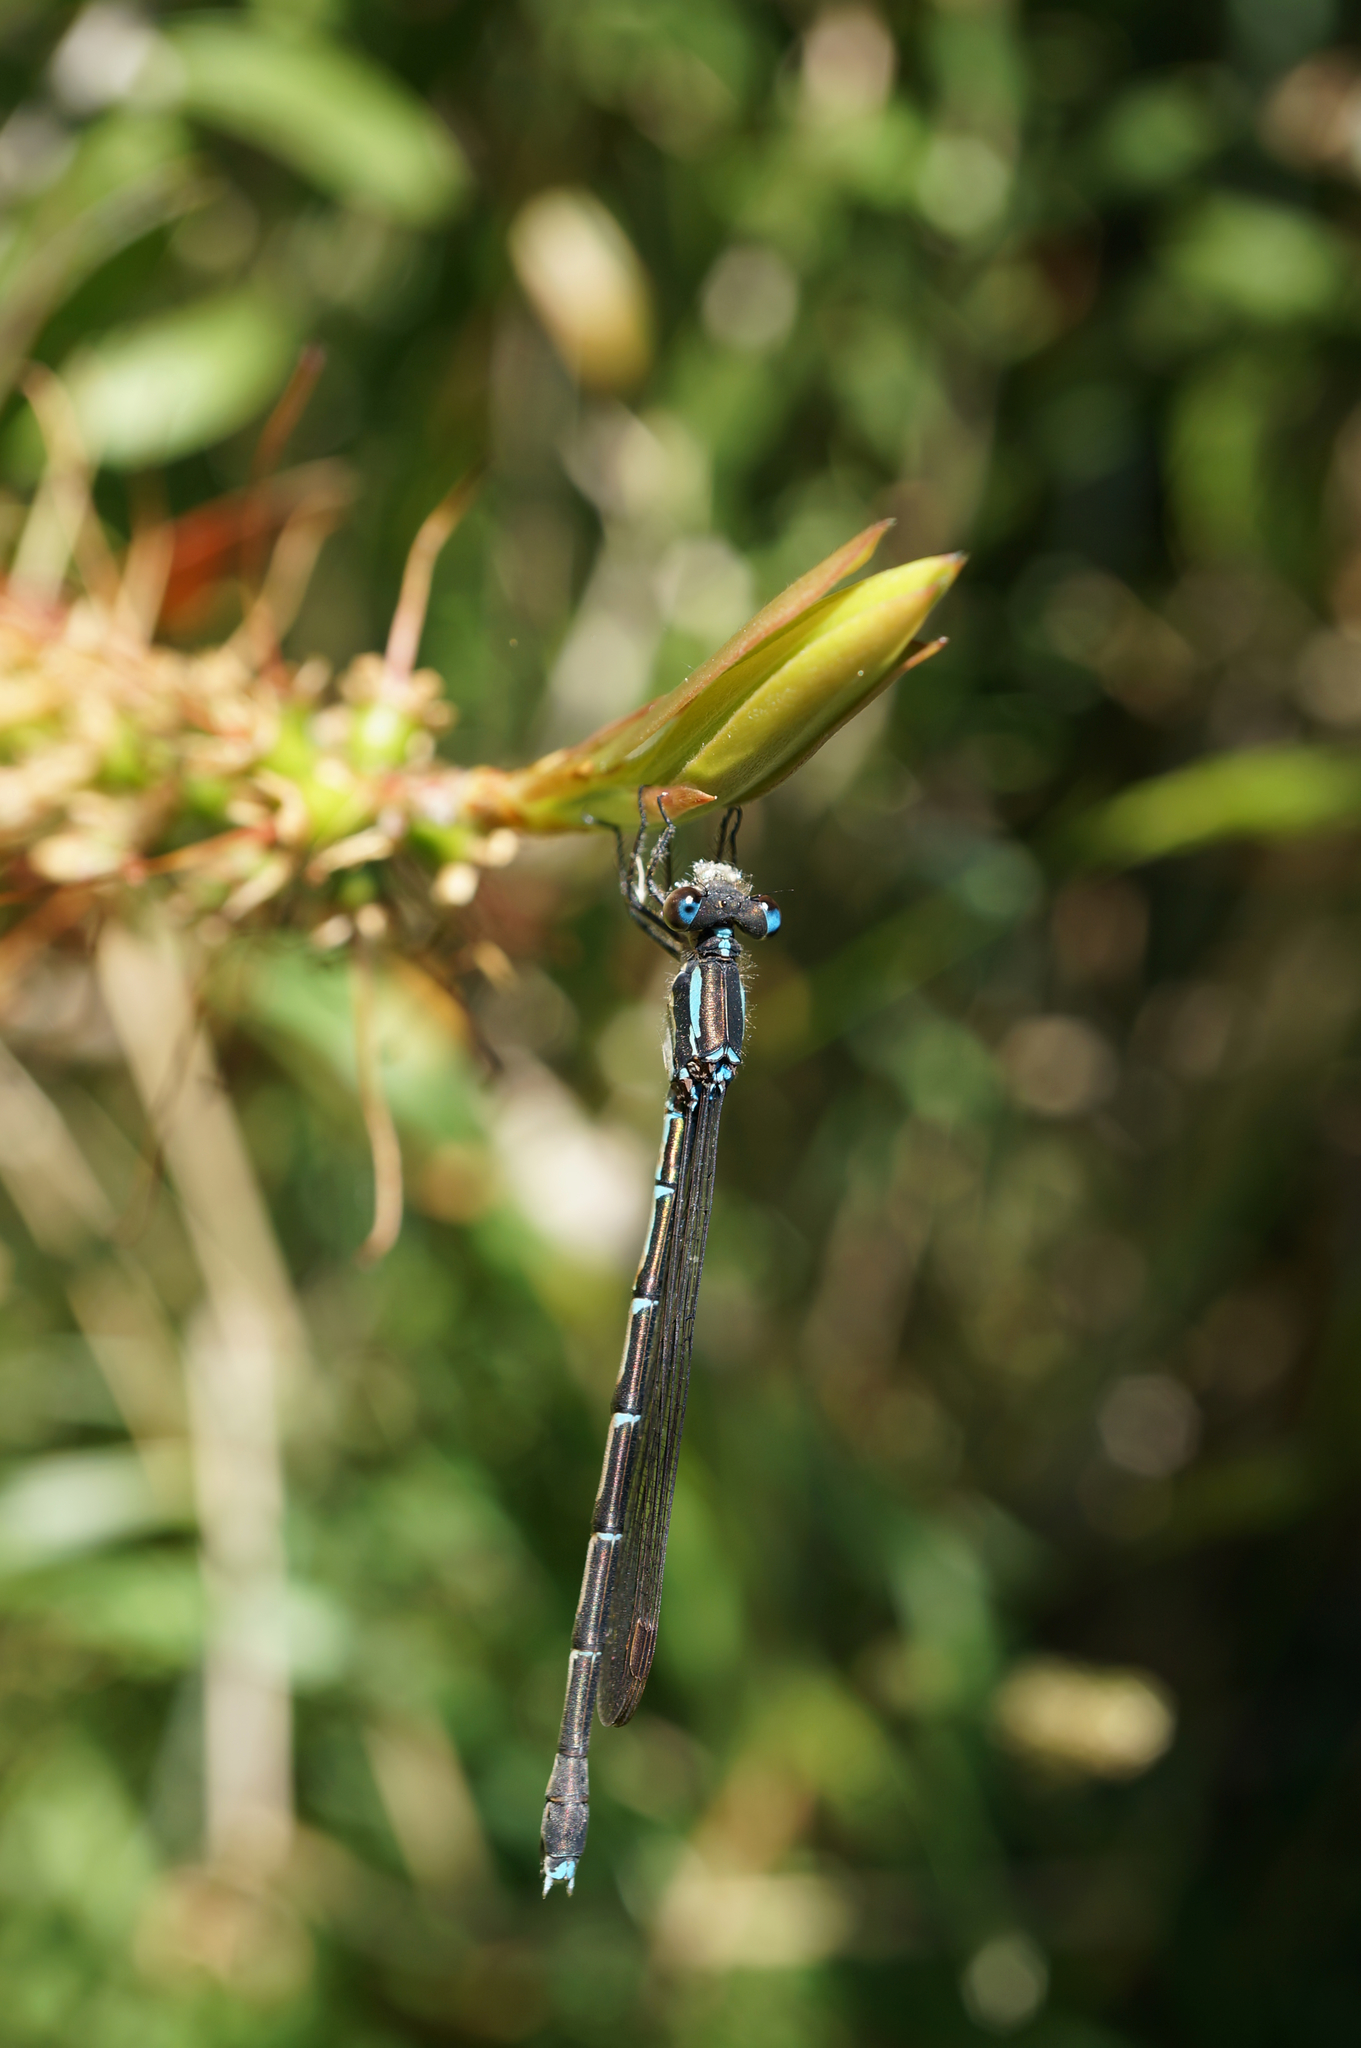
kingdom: Animalia
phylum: Arthropoda
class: Insecta
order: Odonata
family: Lestidae
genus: Austrolestes
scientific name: Austrolestes colensonis
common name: Blue damselfly
